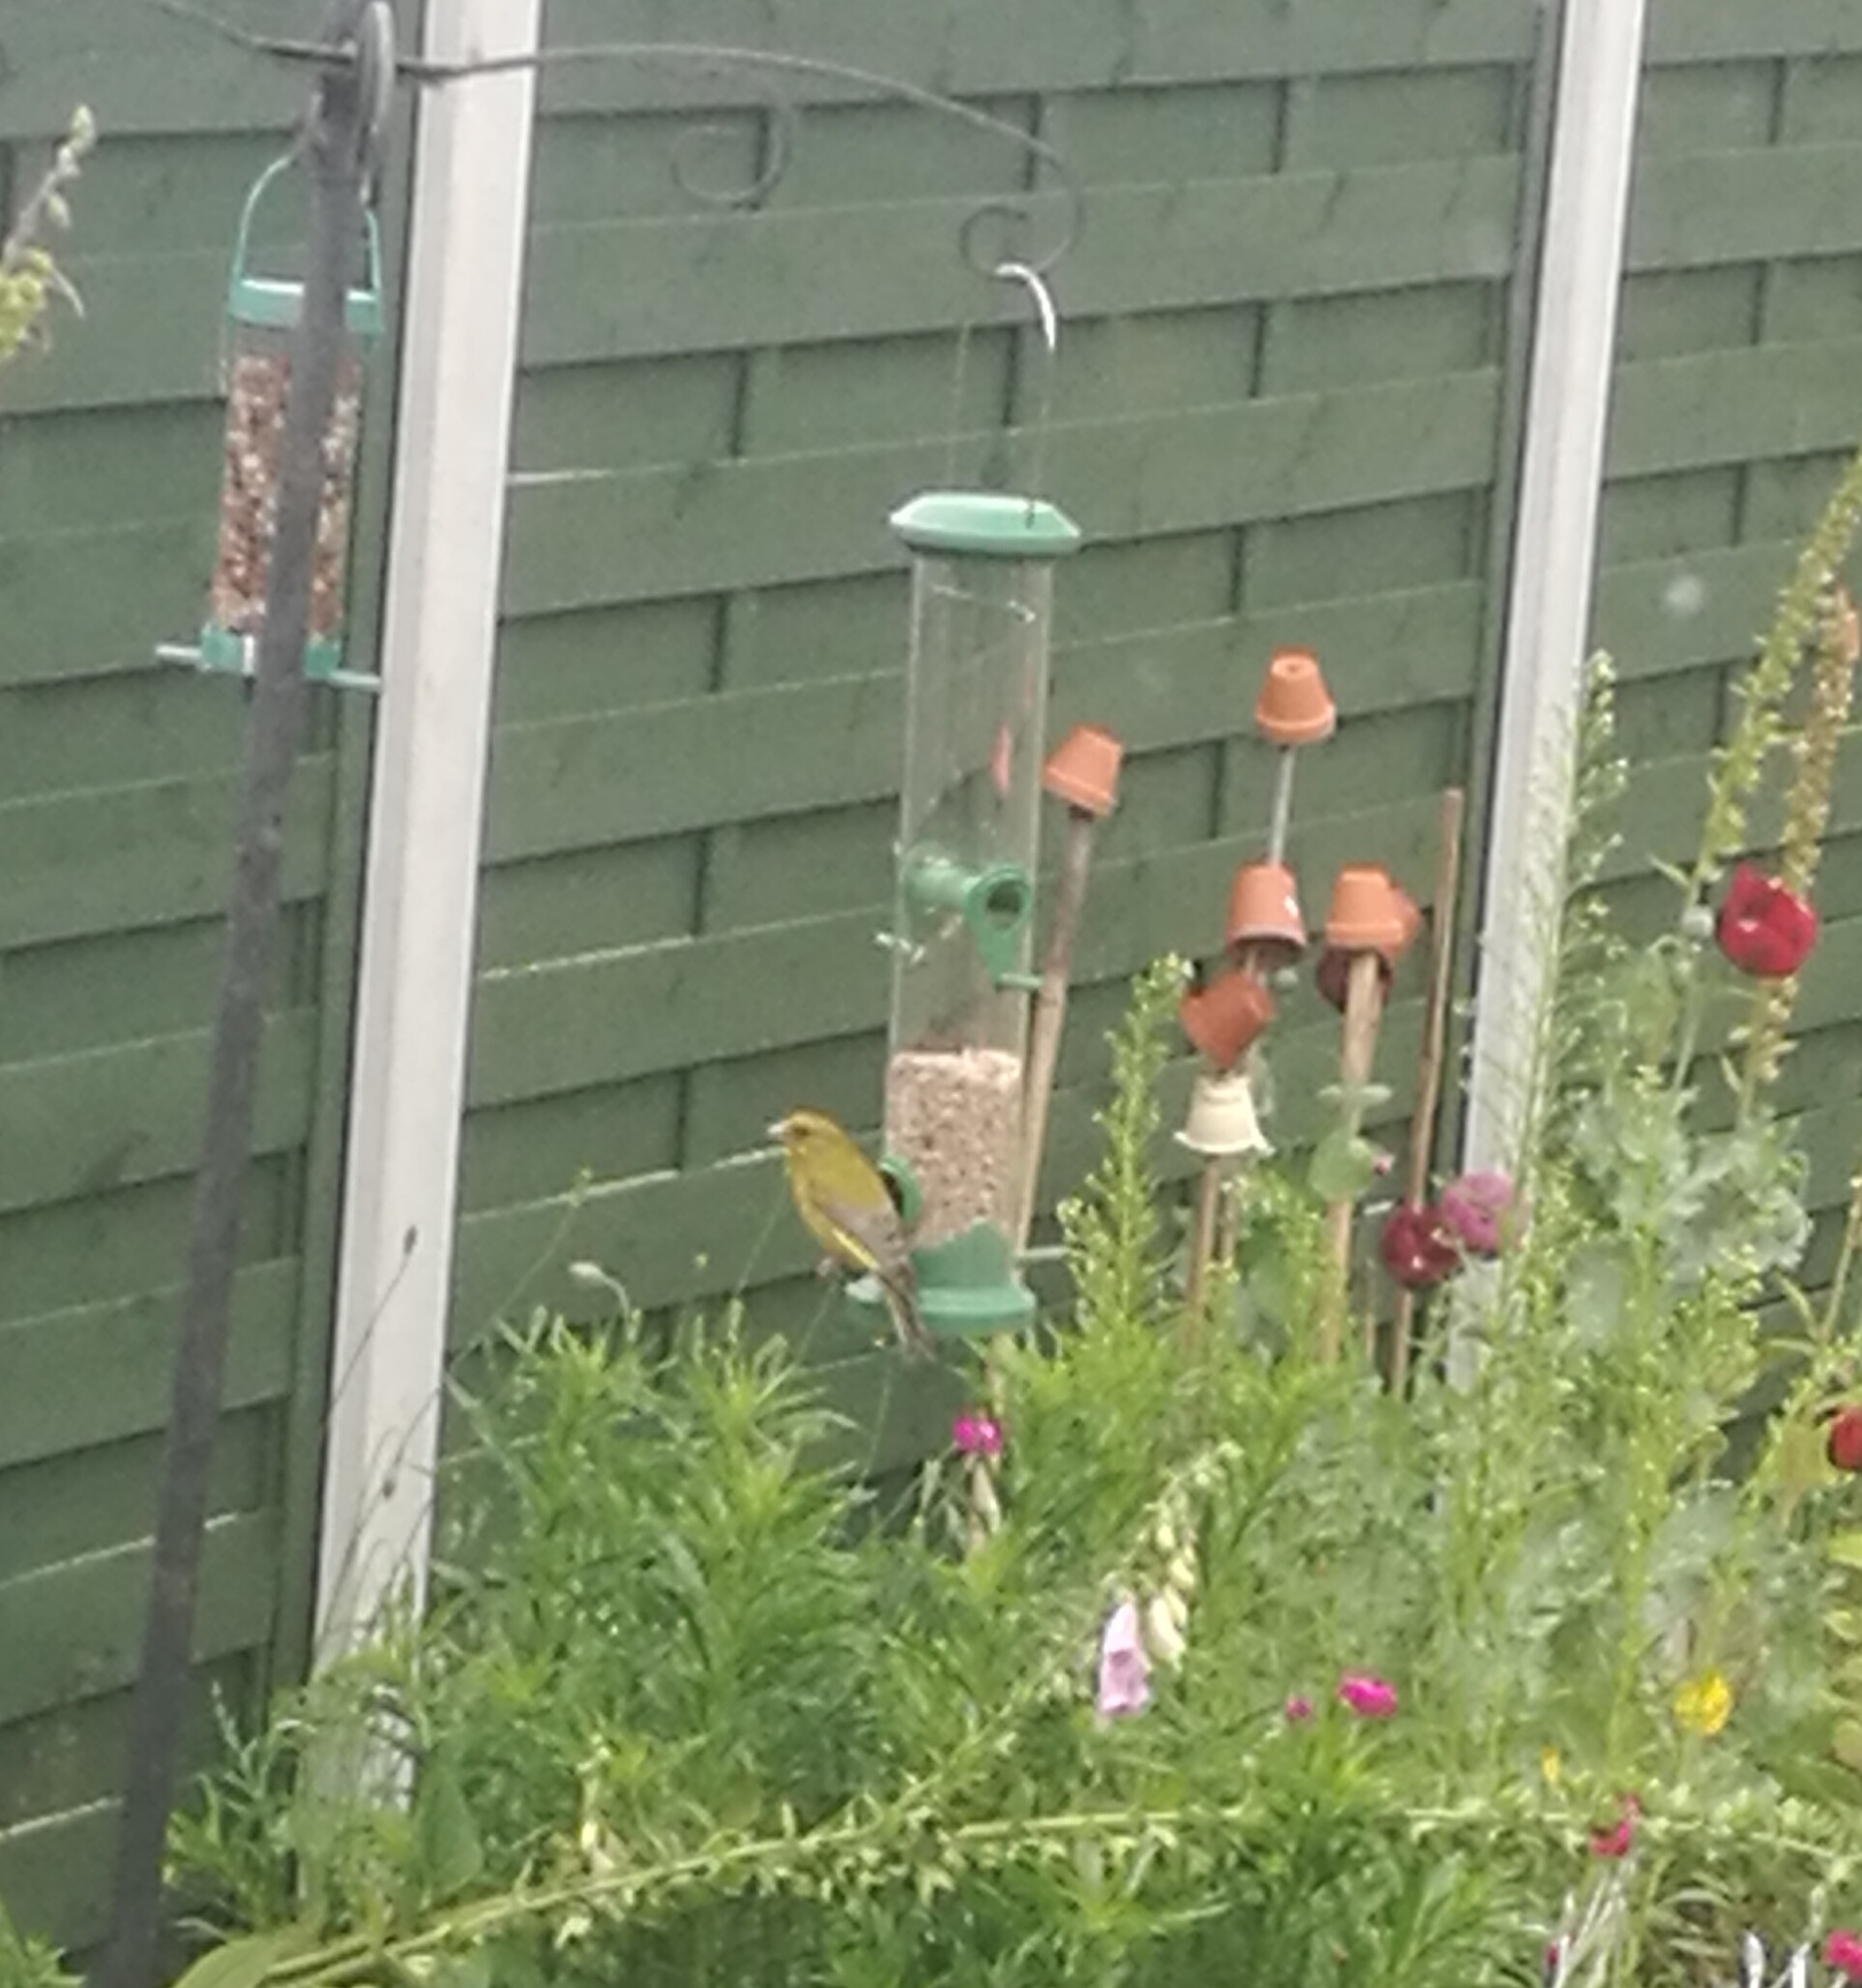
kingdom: Plantae
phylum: Tracheophyta
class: Liliopsida
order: Poales
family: Poaceae
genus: Chloris
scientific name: Chloris chloris
